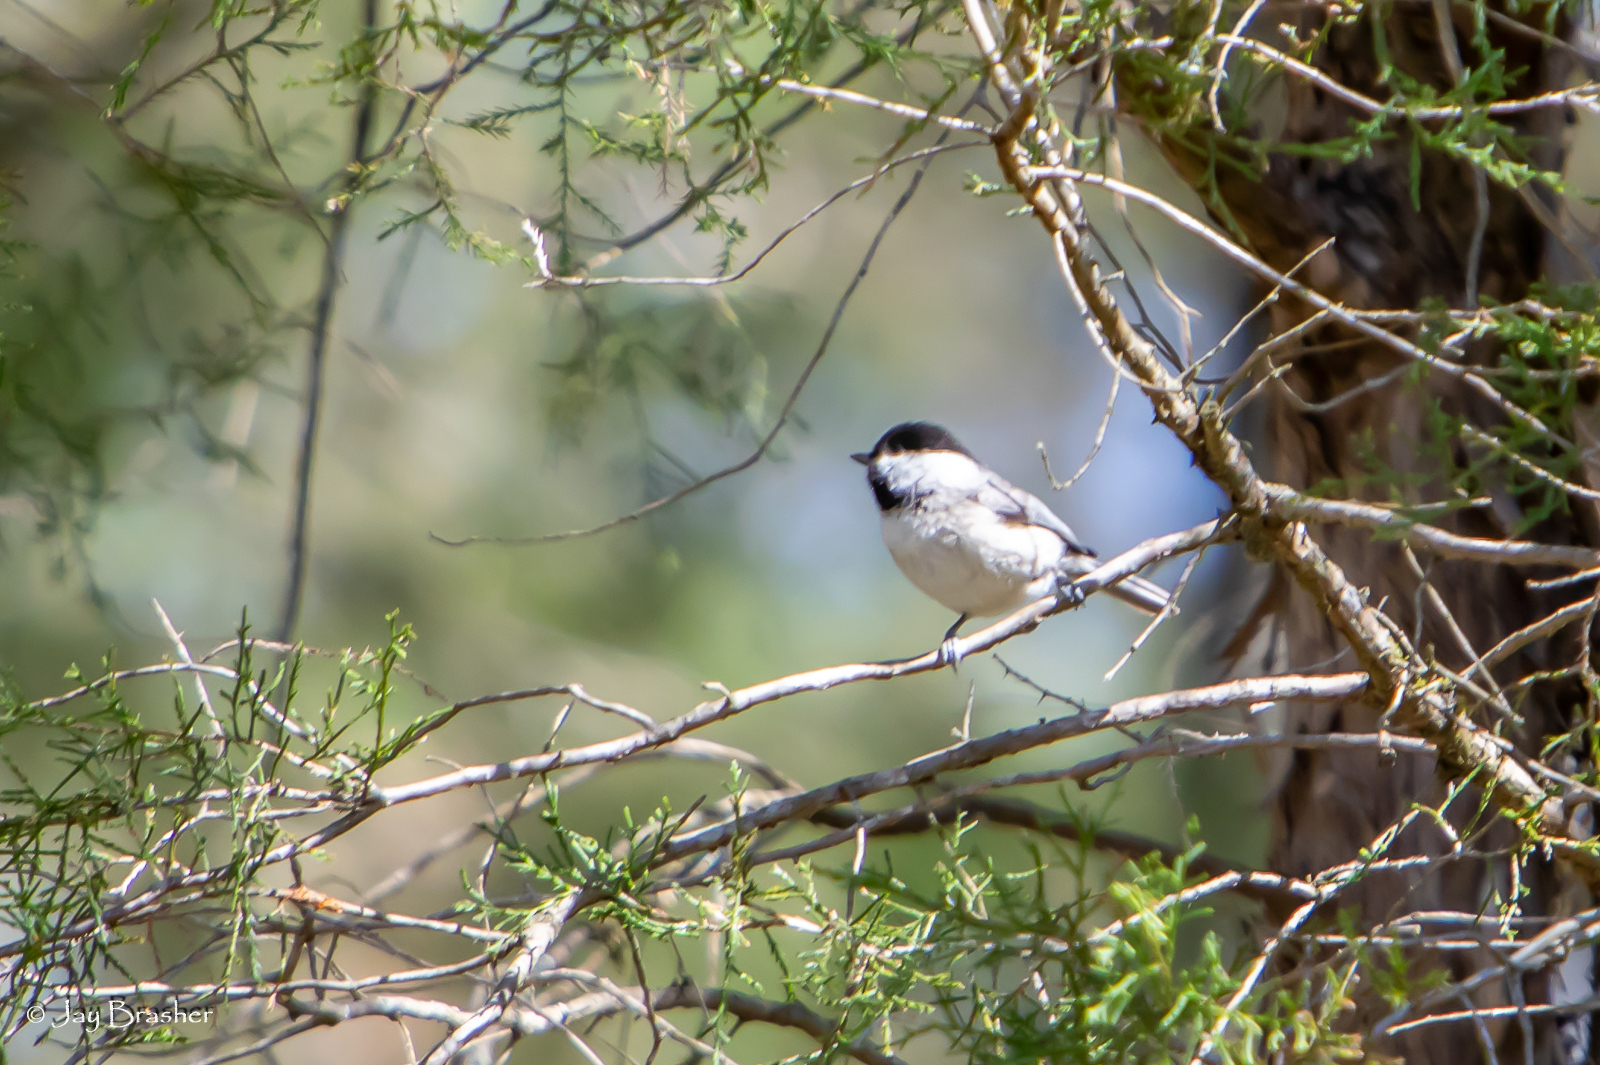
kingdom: Animalia
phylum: Chordata
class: Aves
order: Passeriformes
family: Paridae
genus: Poecile
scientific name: Poecile carolinensis
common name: Carolina chickadee
